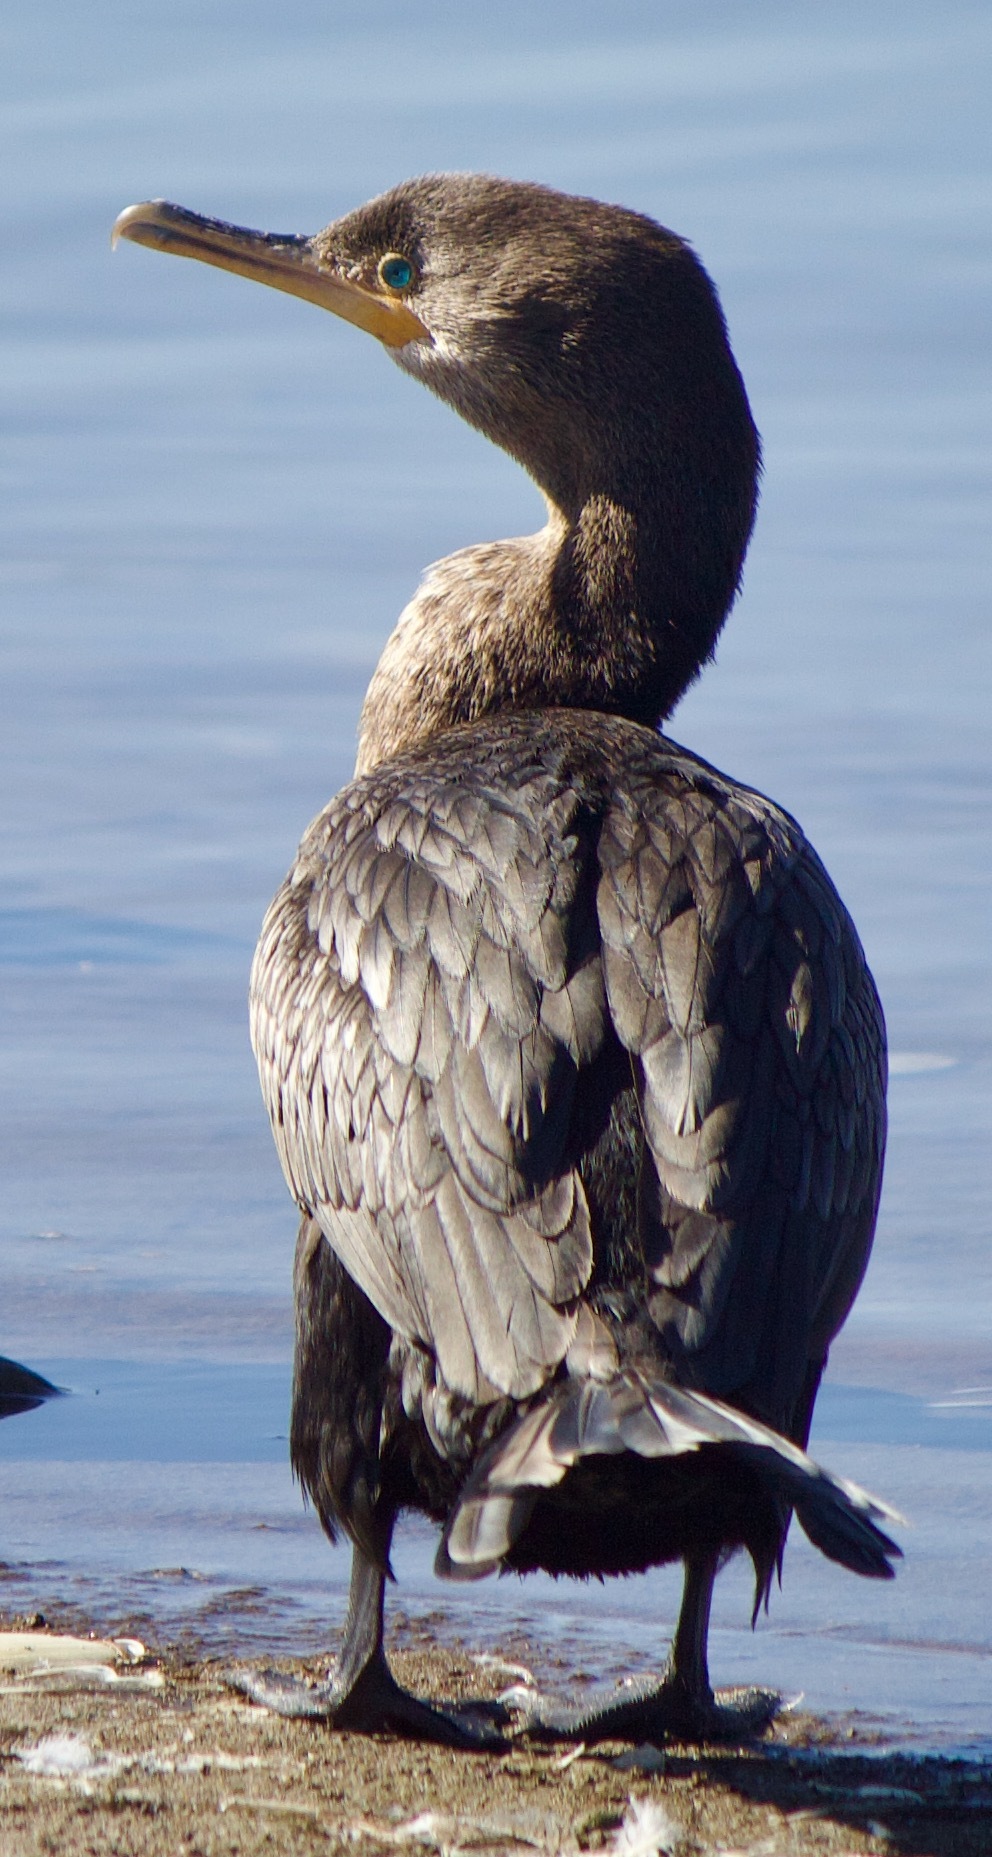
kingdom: Animalia
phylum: Chordata
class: Aves
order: Suliformes
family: Phalacrocoracidae
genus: Phalacrocorax
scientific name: Phalacrocorax brasilianus
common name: Neotropic cormorant
